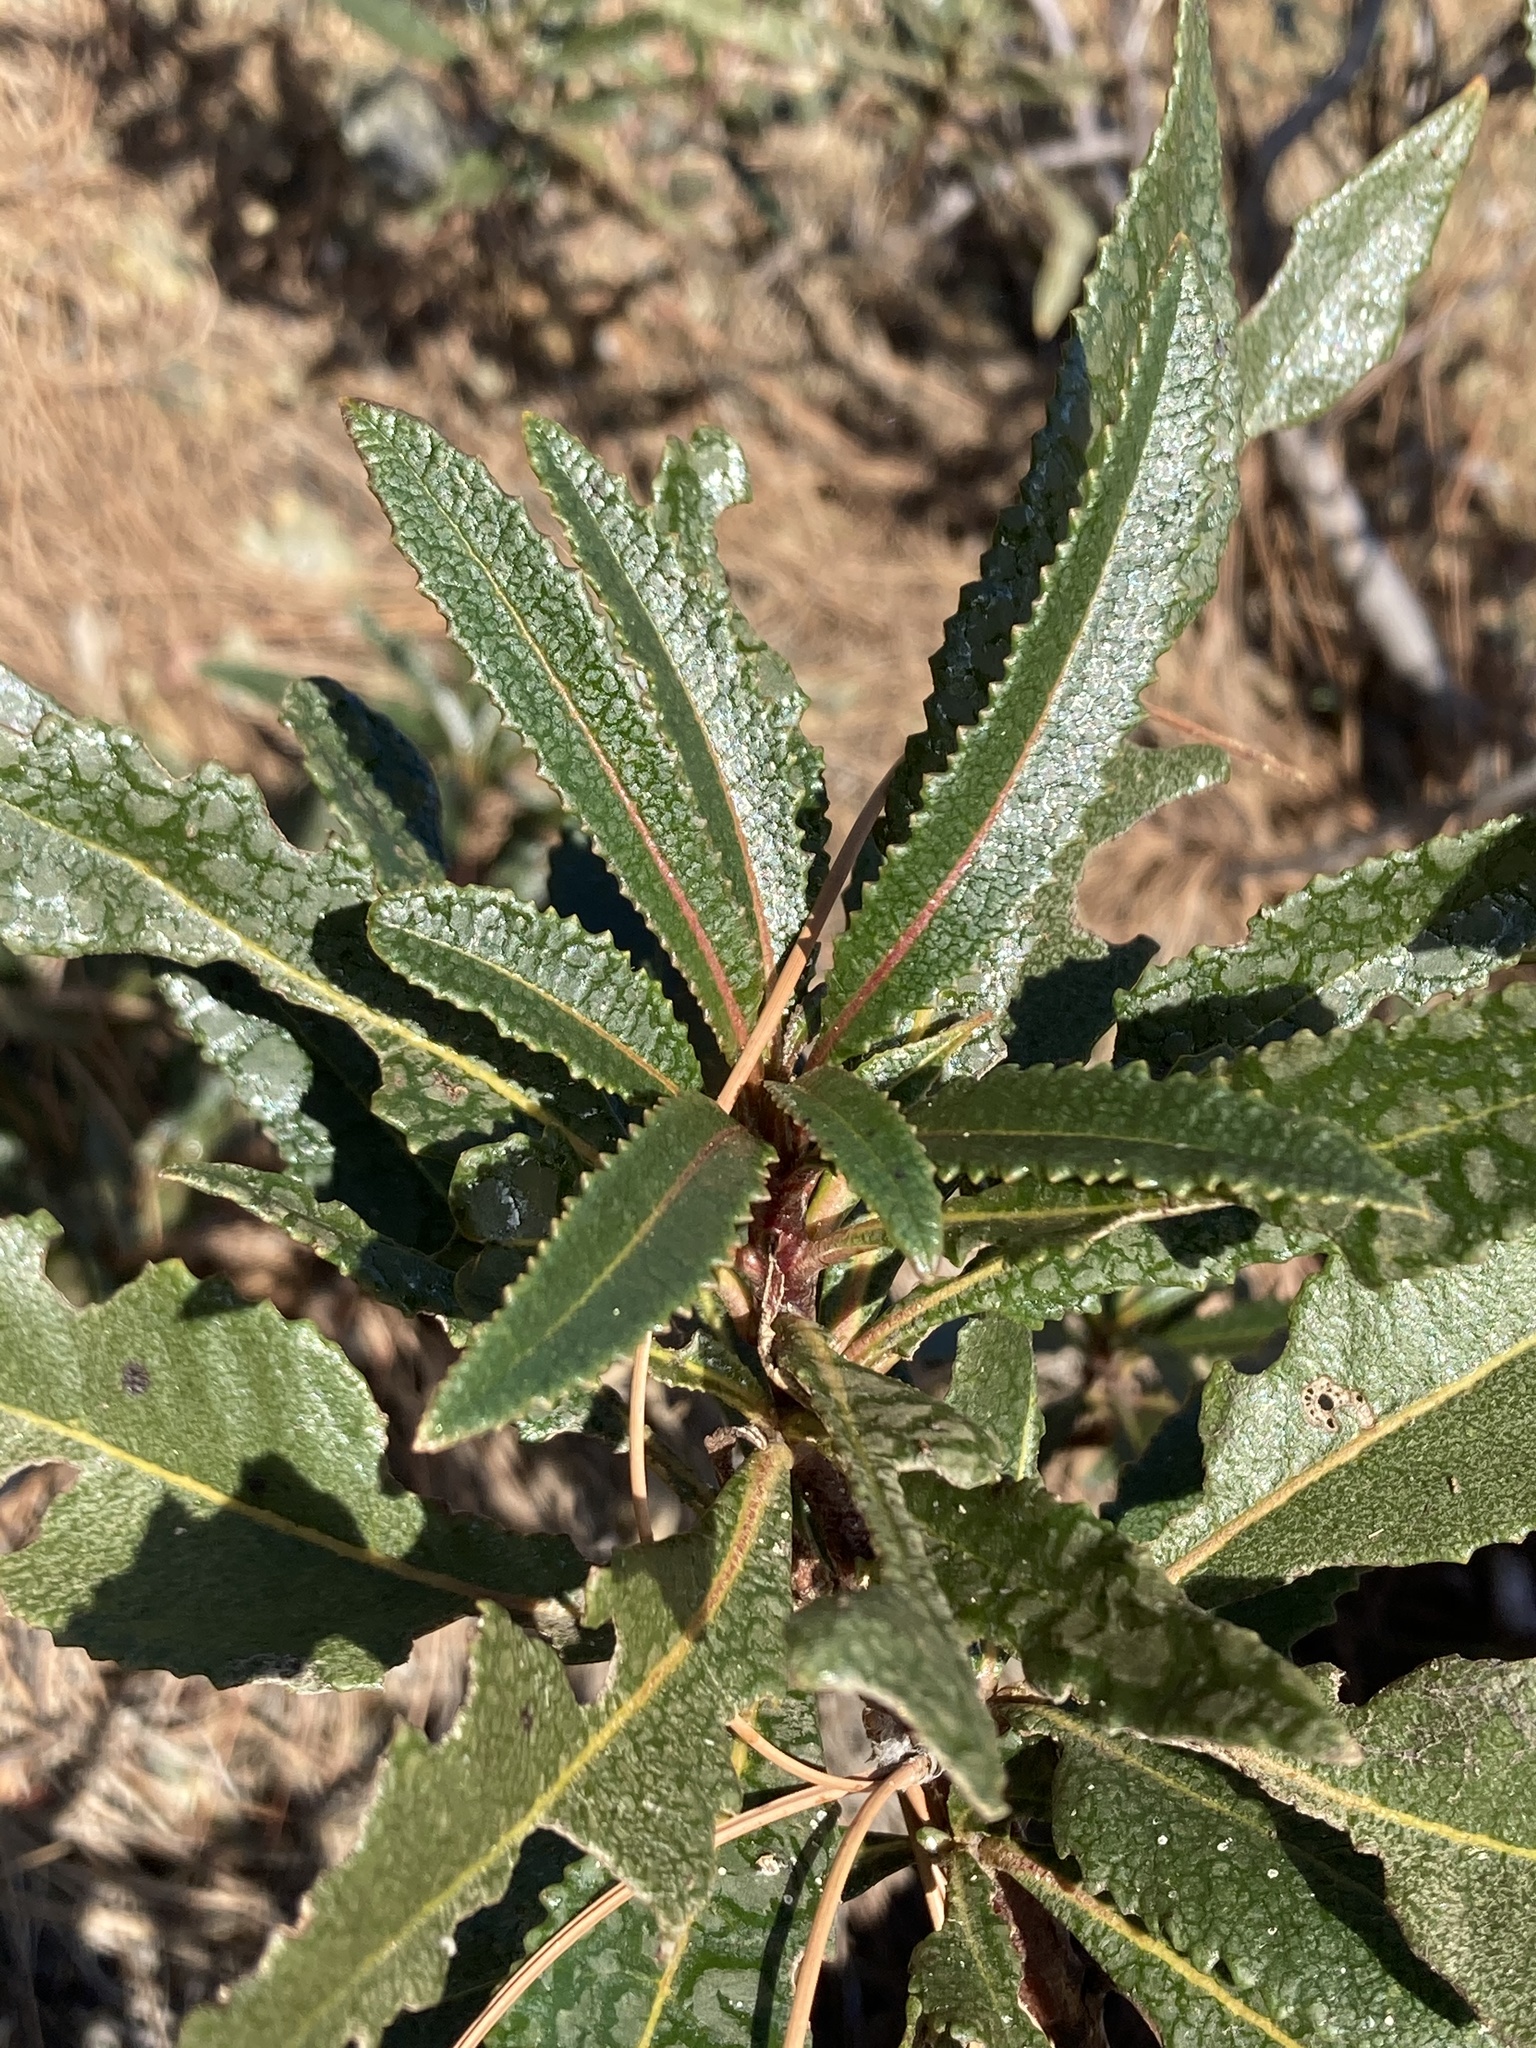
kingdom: Plantae
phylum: Tracheophyta
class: Magnoliopsida
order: Boraginales
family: Namaceae
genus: Eriodictyon
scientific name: Eriodictyon californicum
